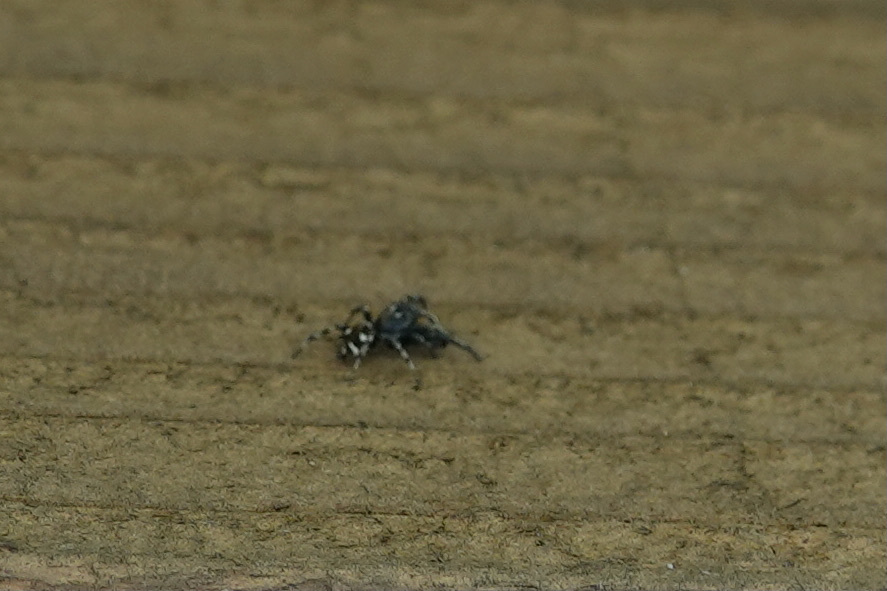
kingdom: Animalia
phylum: Arthropoda
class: Arachnida
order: Araneae
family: Salticidae
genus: Salticus
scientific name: Salticus scenicus
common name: Zebra jumper
